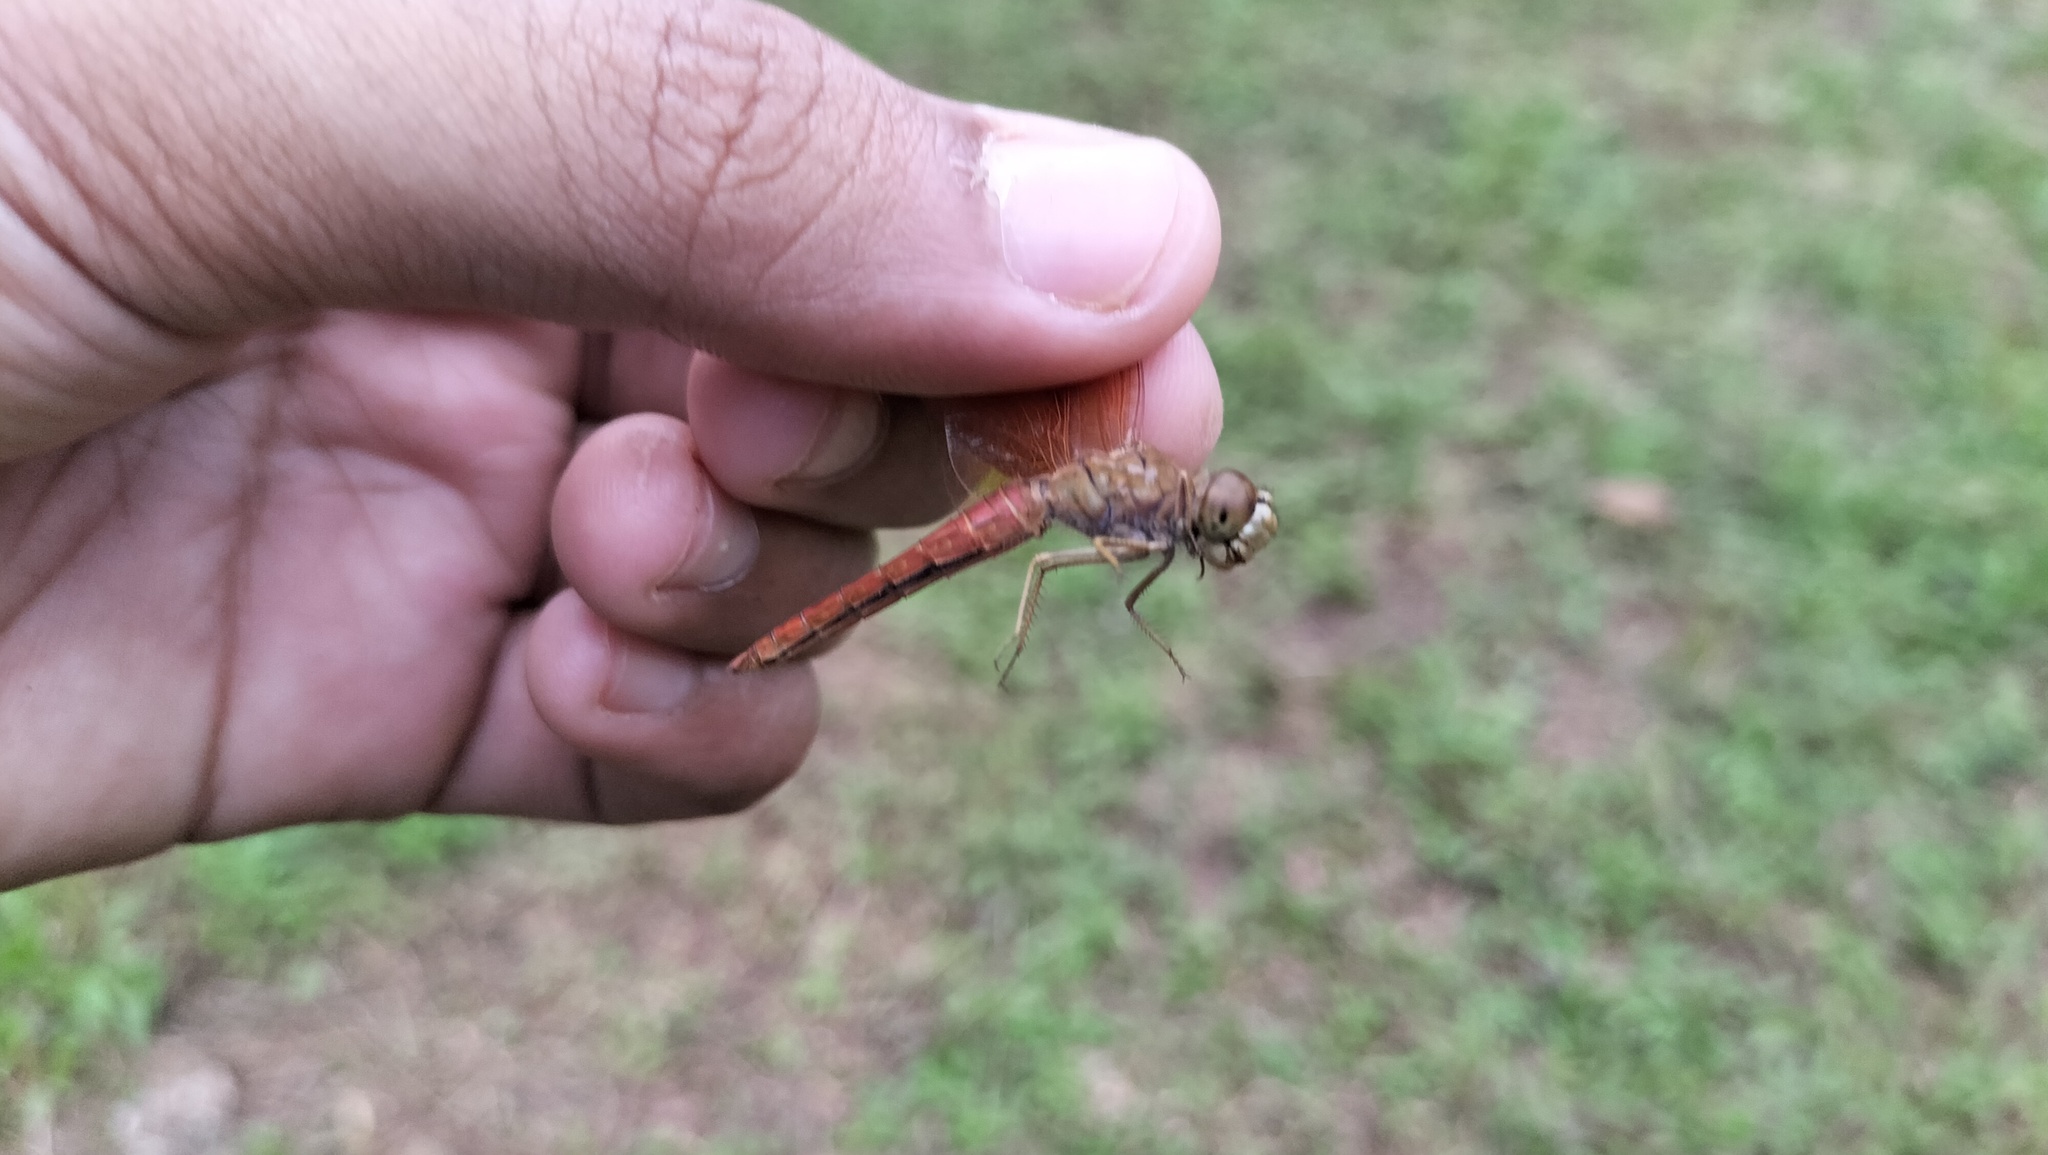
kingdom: Animalia
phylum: Arthropoda
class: Insecta
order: Odonata
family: Libellulidae
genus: Brachythemis
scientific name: Brachythemis contaminata
